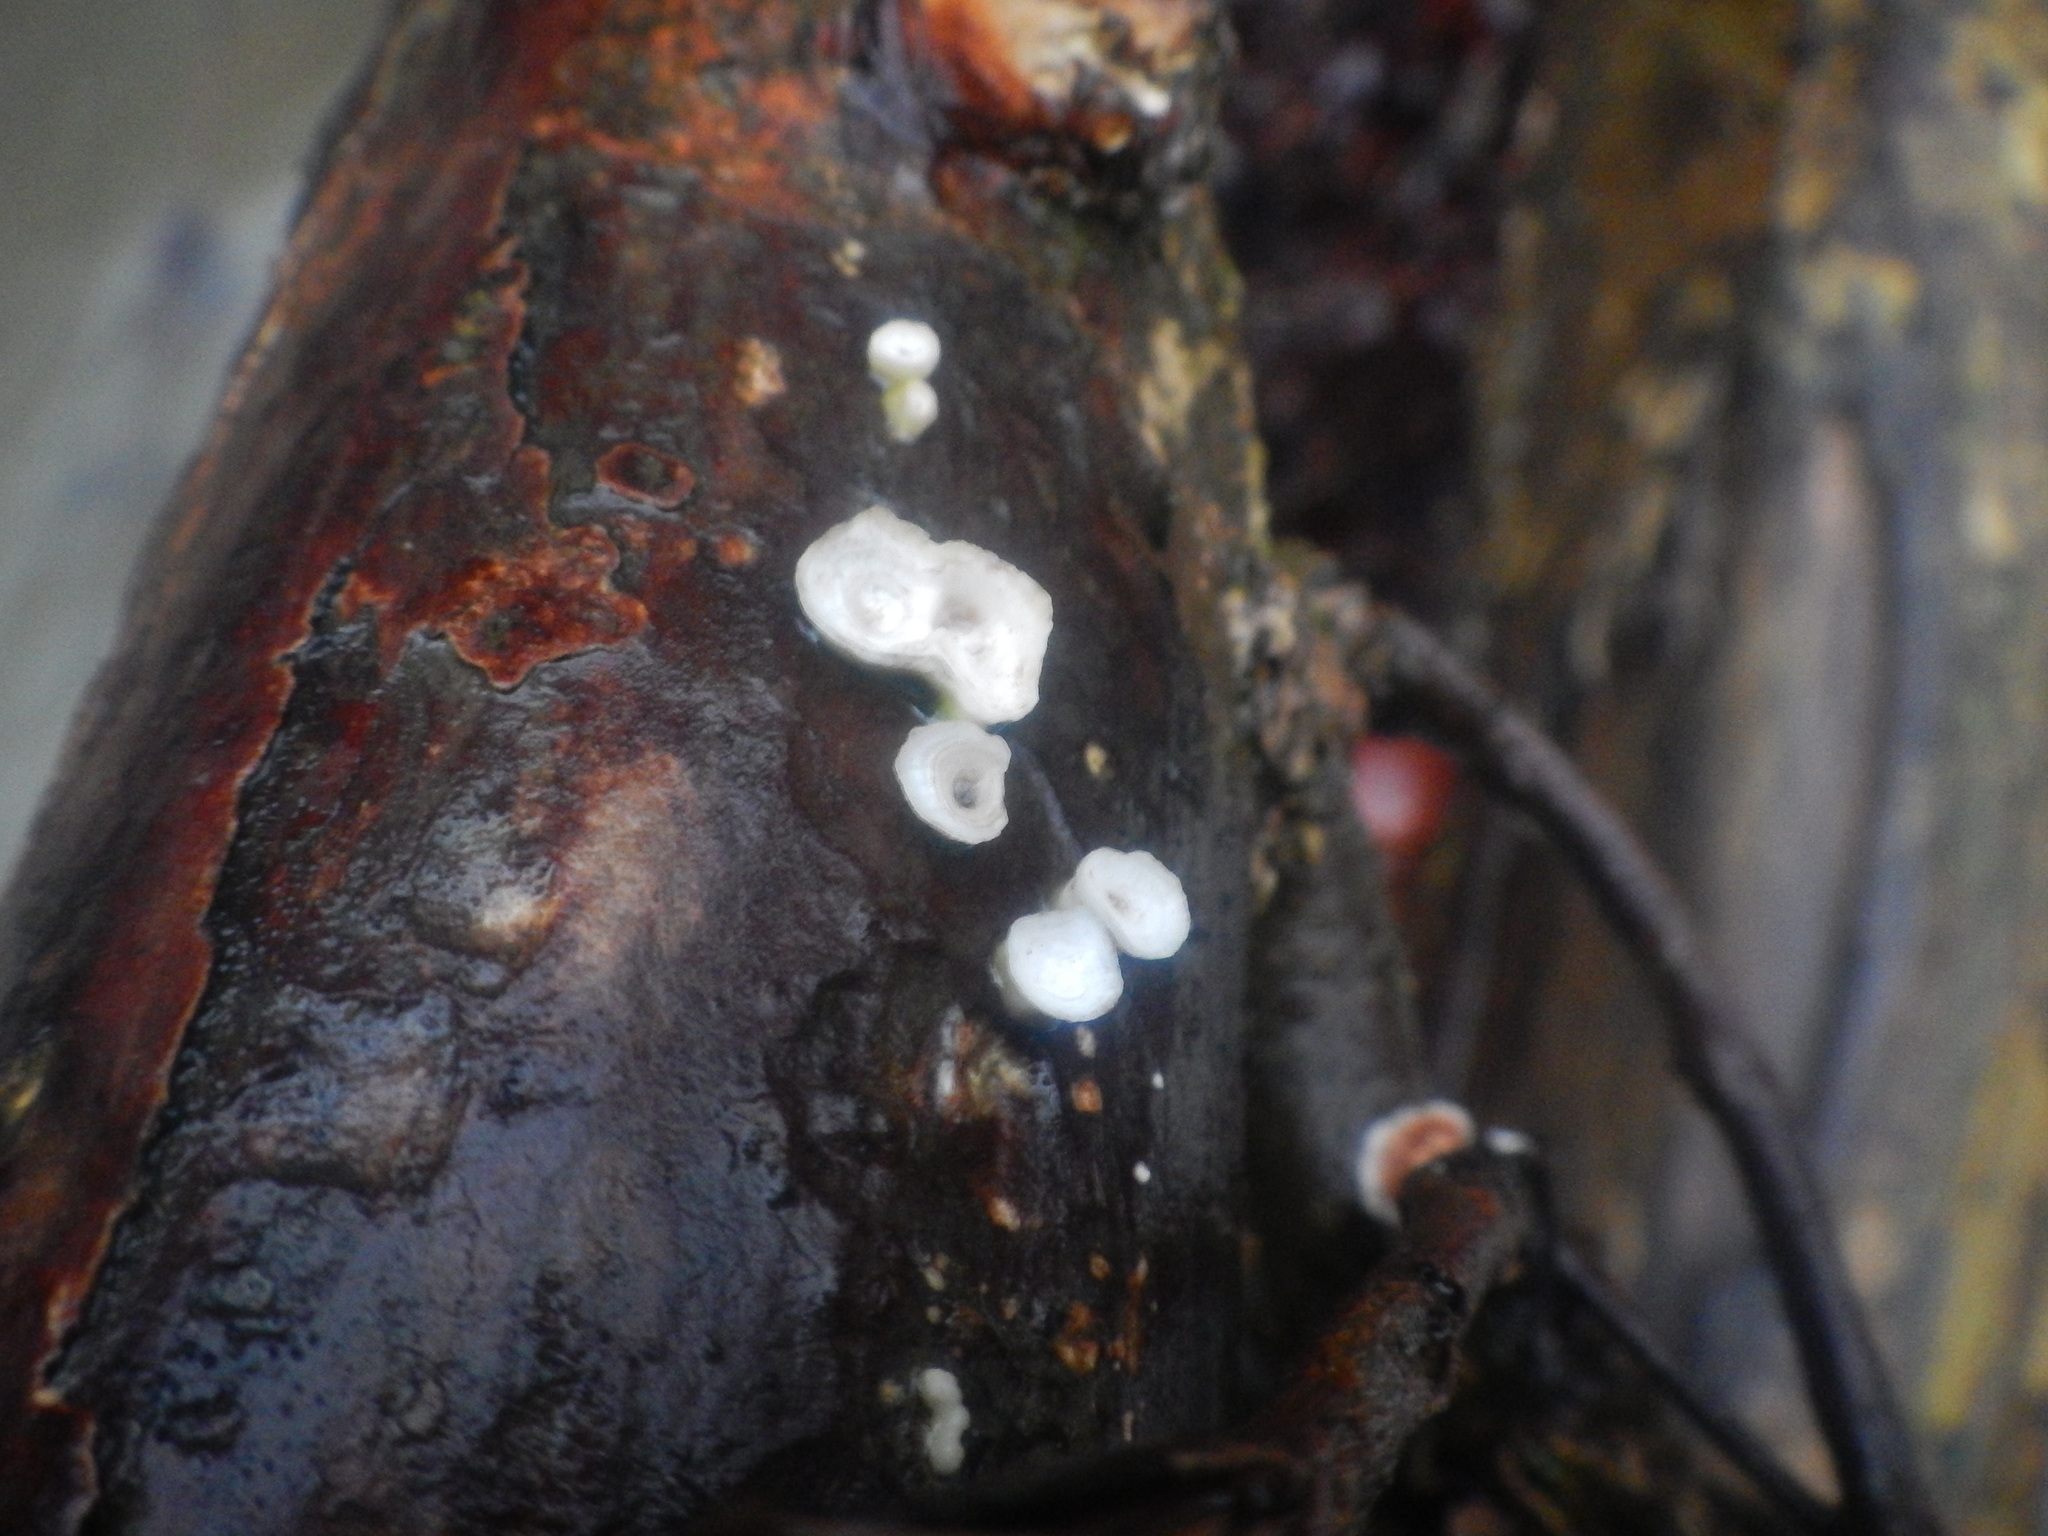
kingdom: Fungi
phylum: Basidiomycota
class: Agaricomycetes
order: Polyporales
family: Polyporaceae
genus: Poronidulus
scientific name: Poronidulus conchifer
